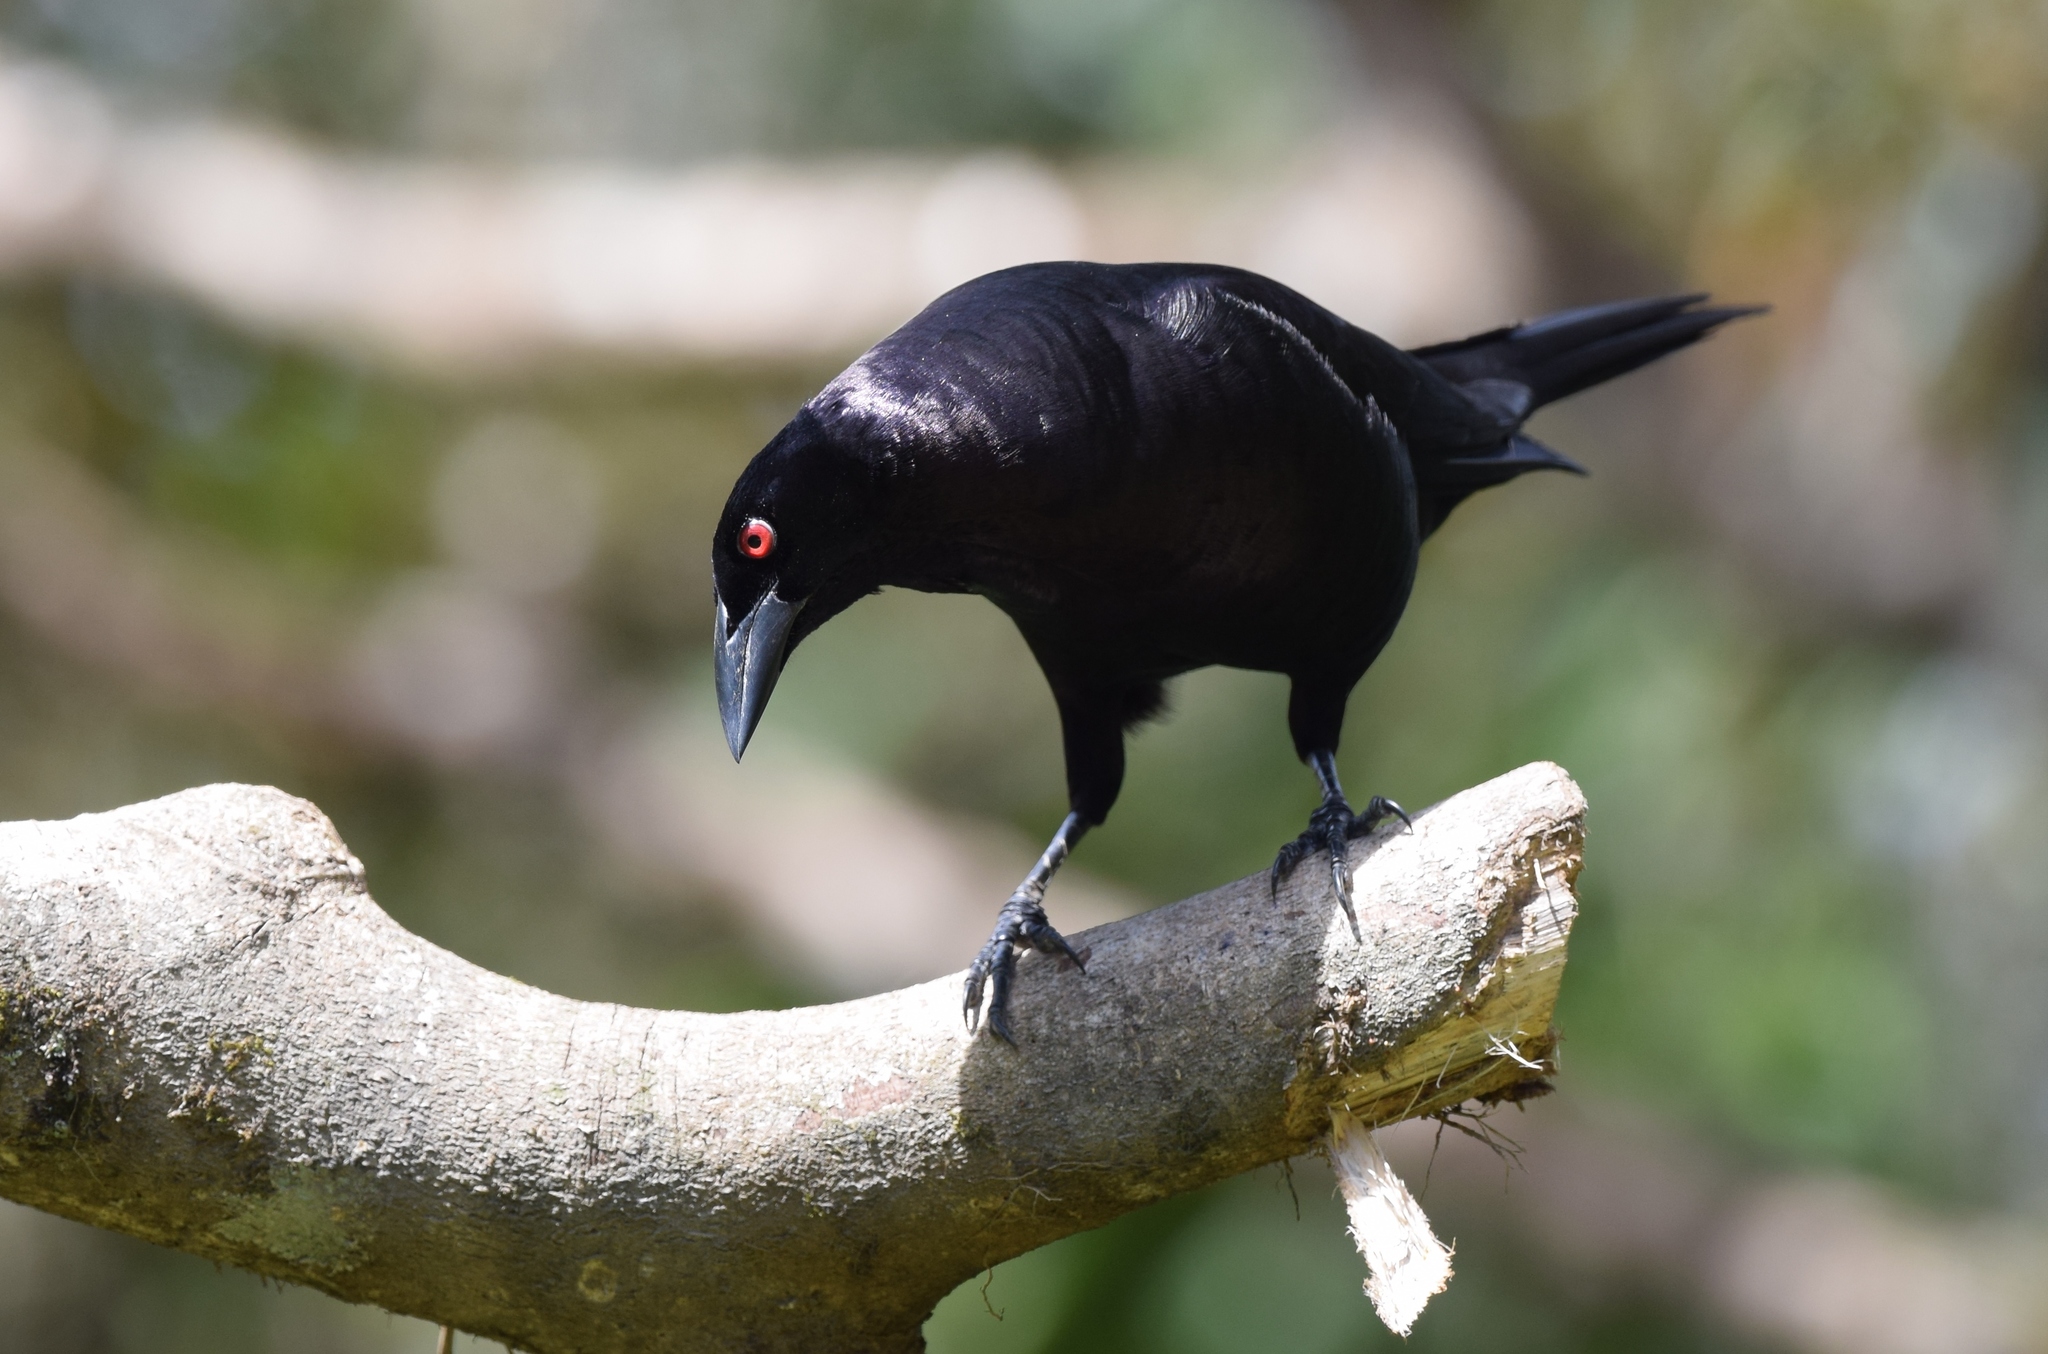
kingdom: Animalia
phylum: Chordata
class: Aves
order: Passeriformes
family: Icteridae
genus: Molothrus
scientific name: Molothrus oryzivorus
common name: Giant cowbird
